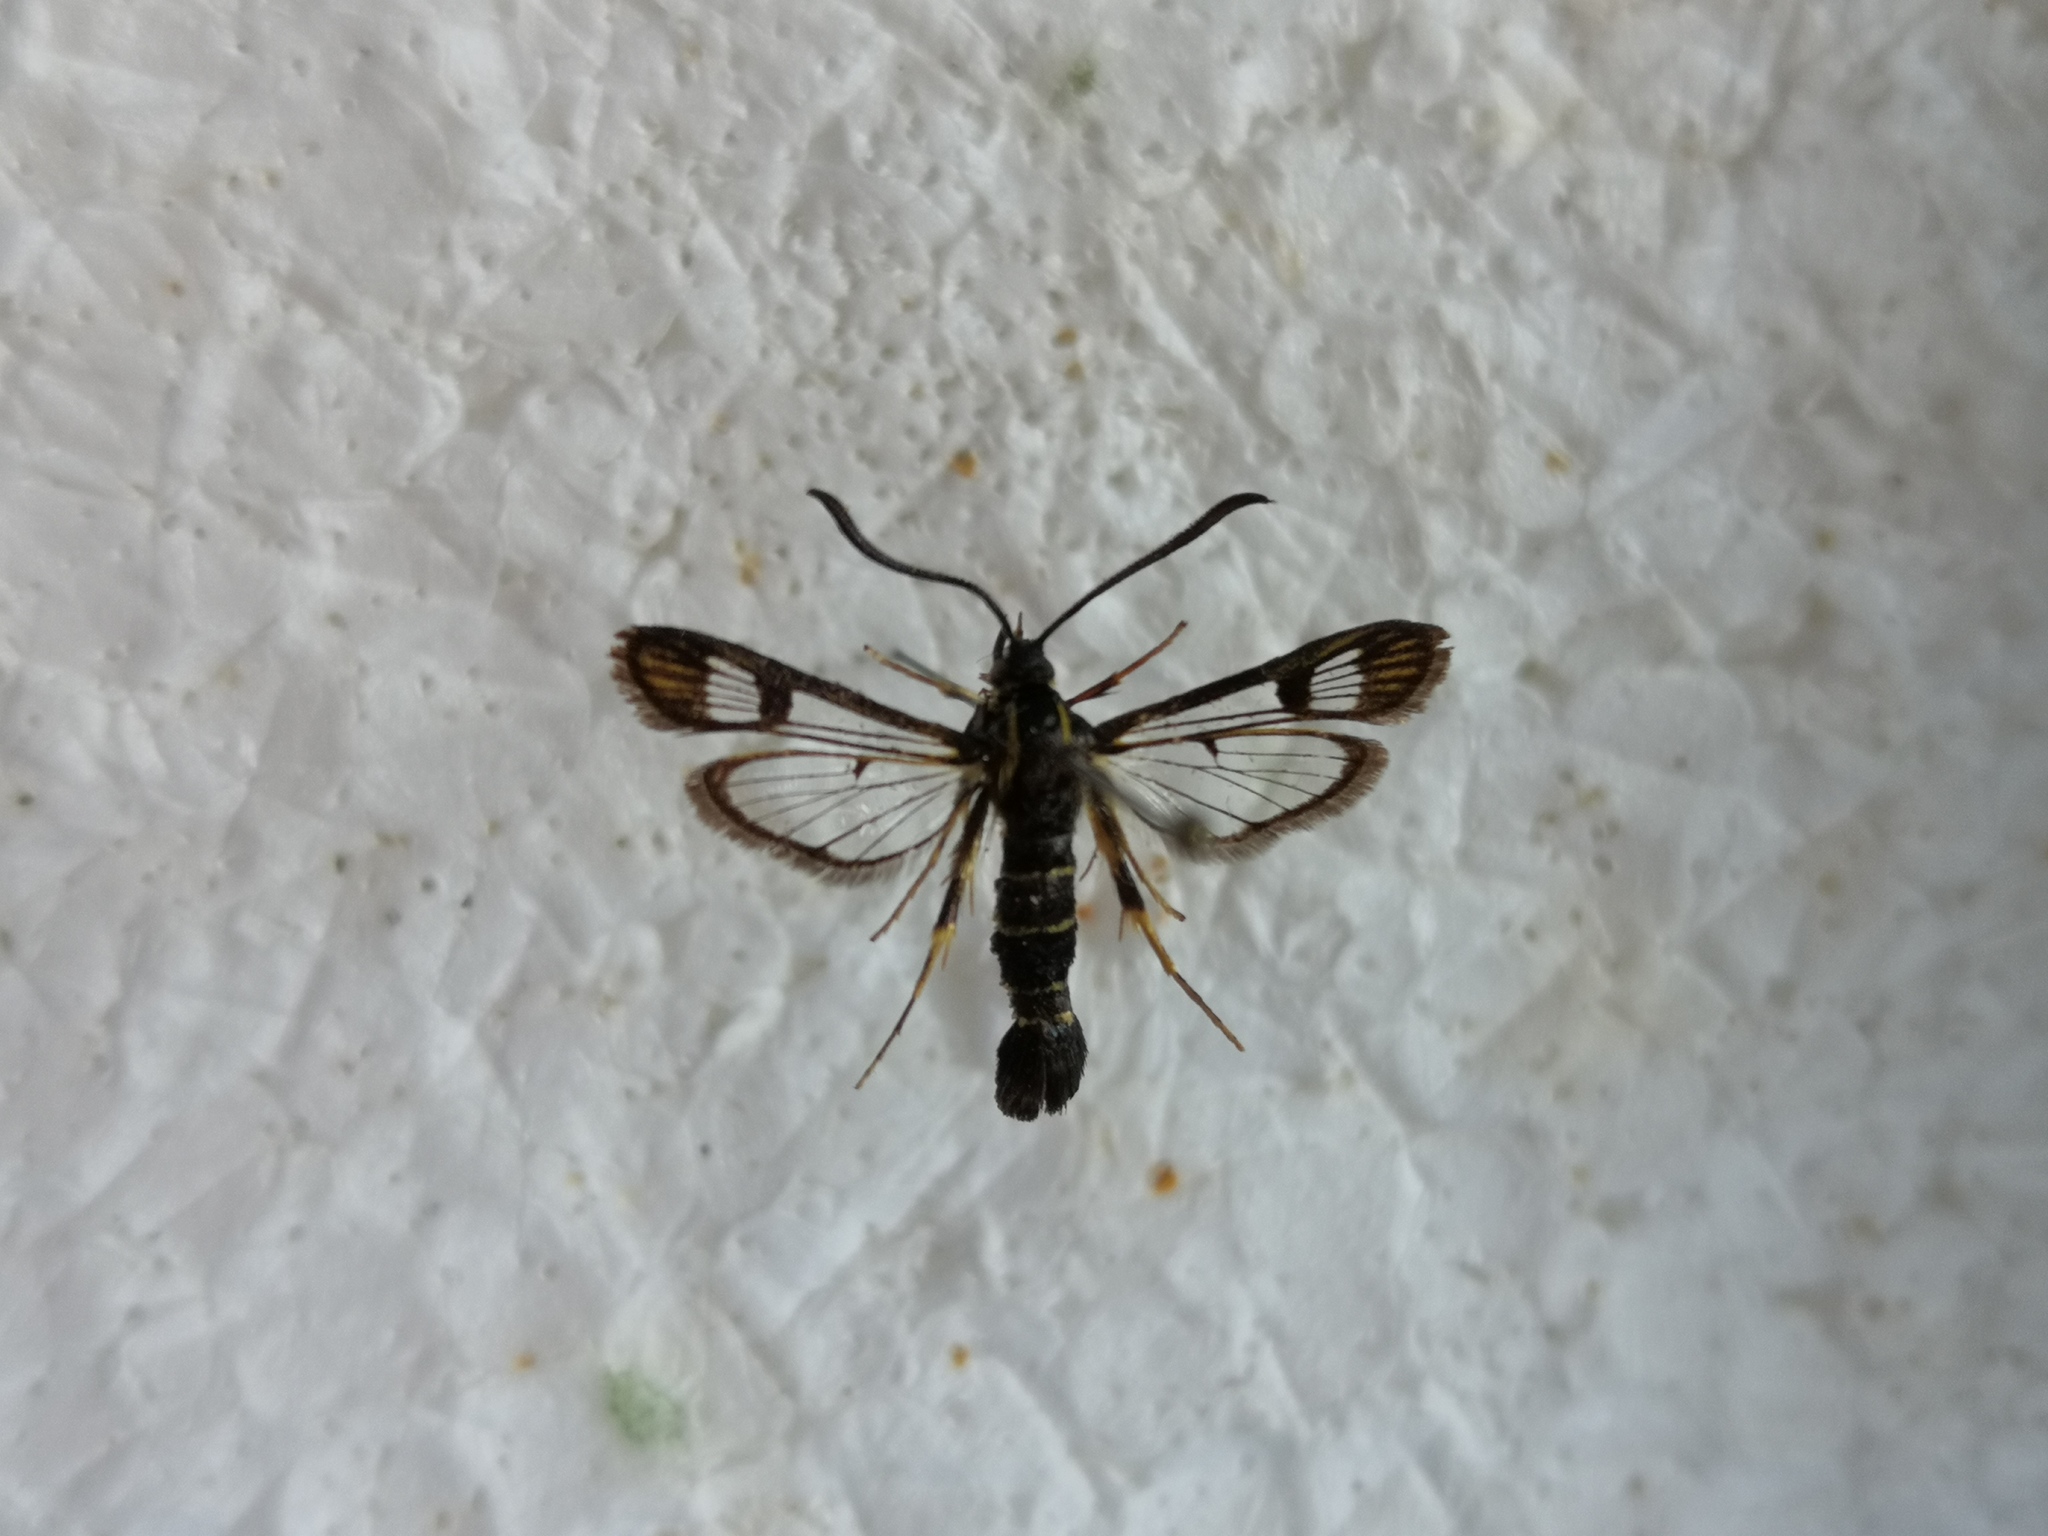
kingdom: Animalia
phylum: Arthropoda
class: Insecta
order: Lepidoptera
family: Sesiidae
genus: Synanthedon
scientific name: Synanthedon tipuliformis
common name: Currant clearwing
